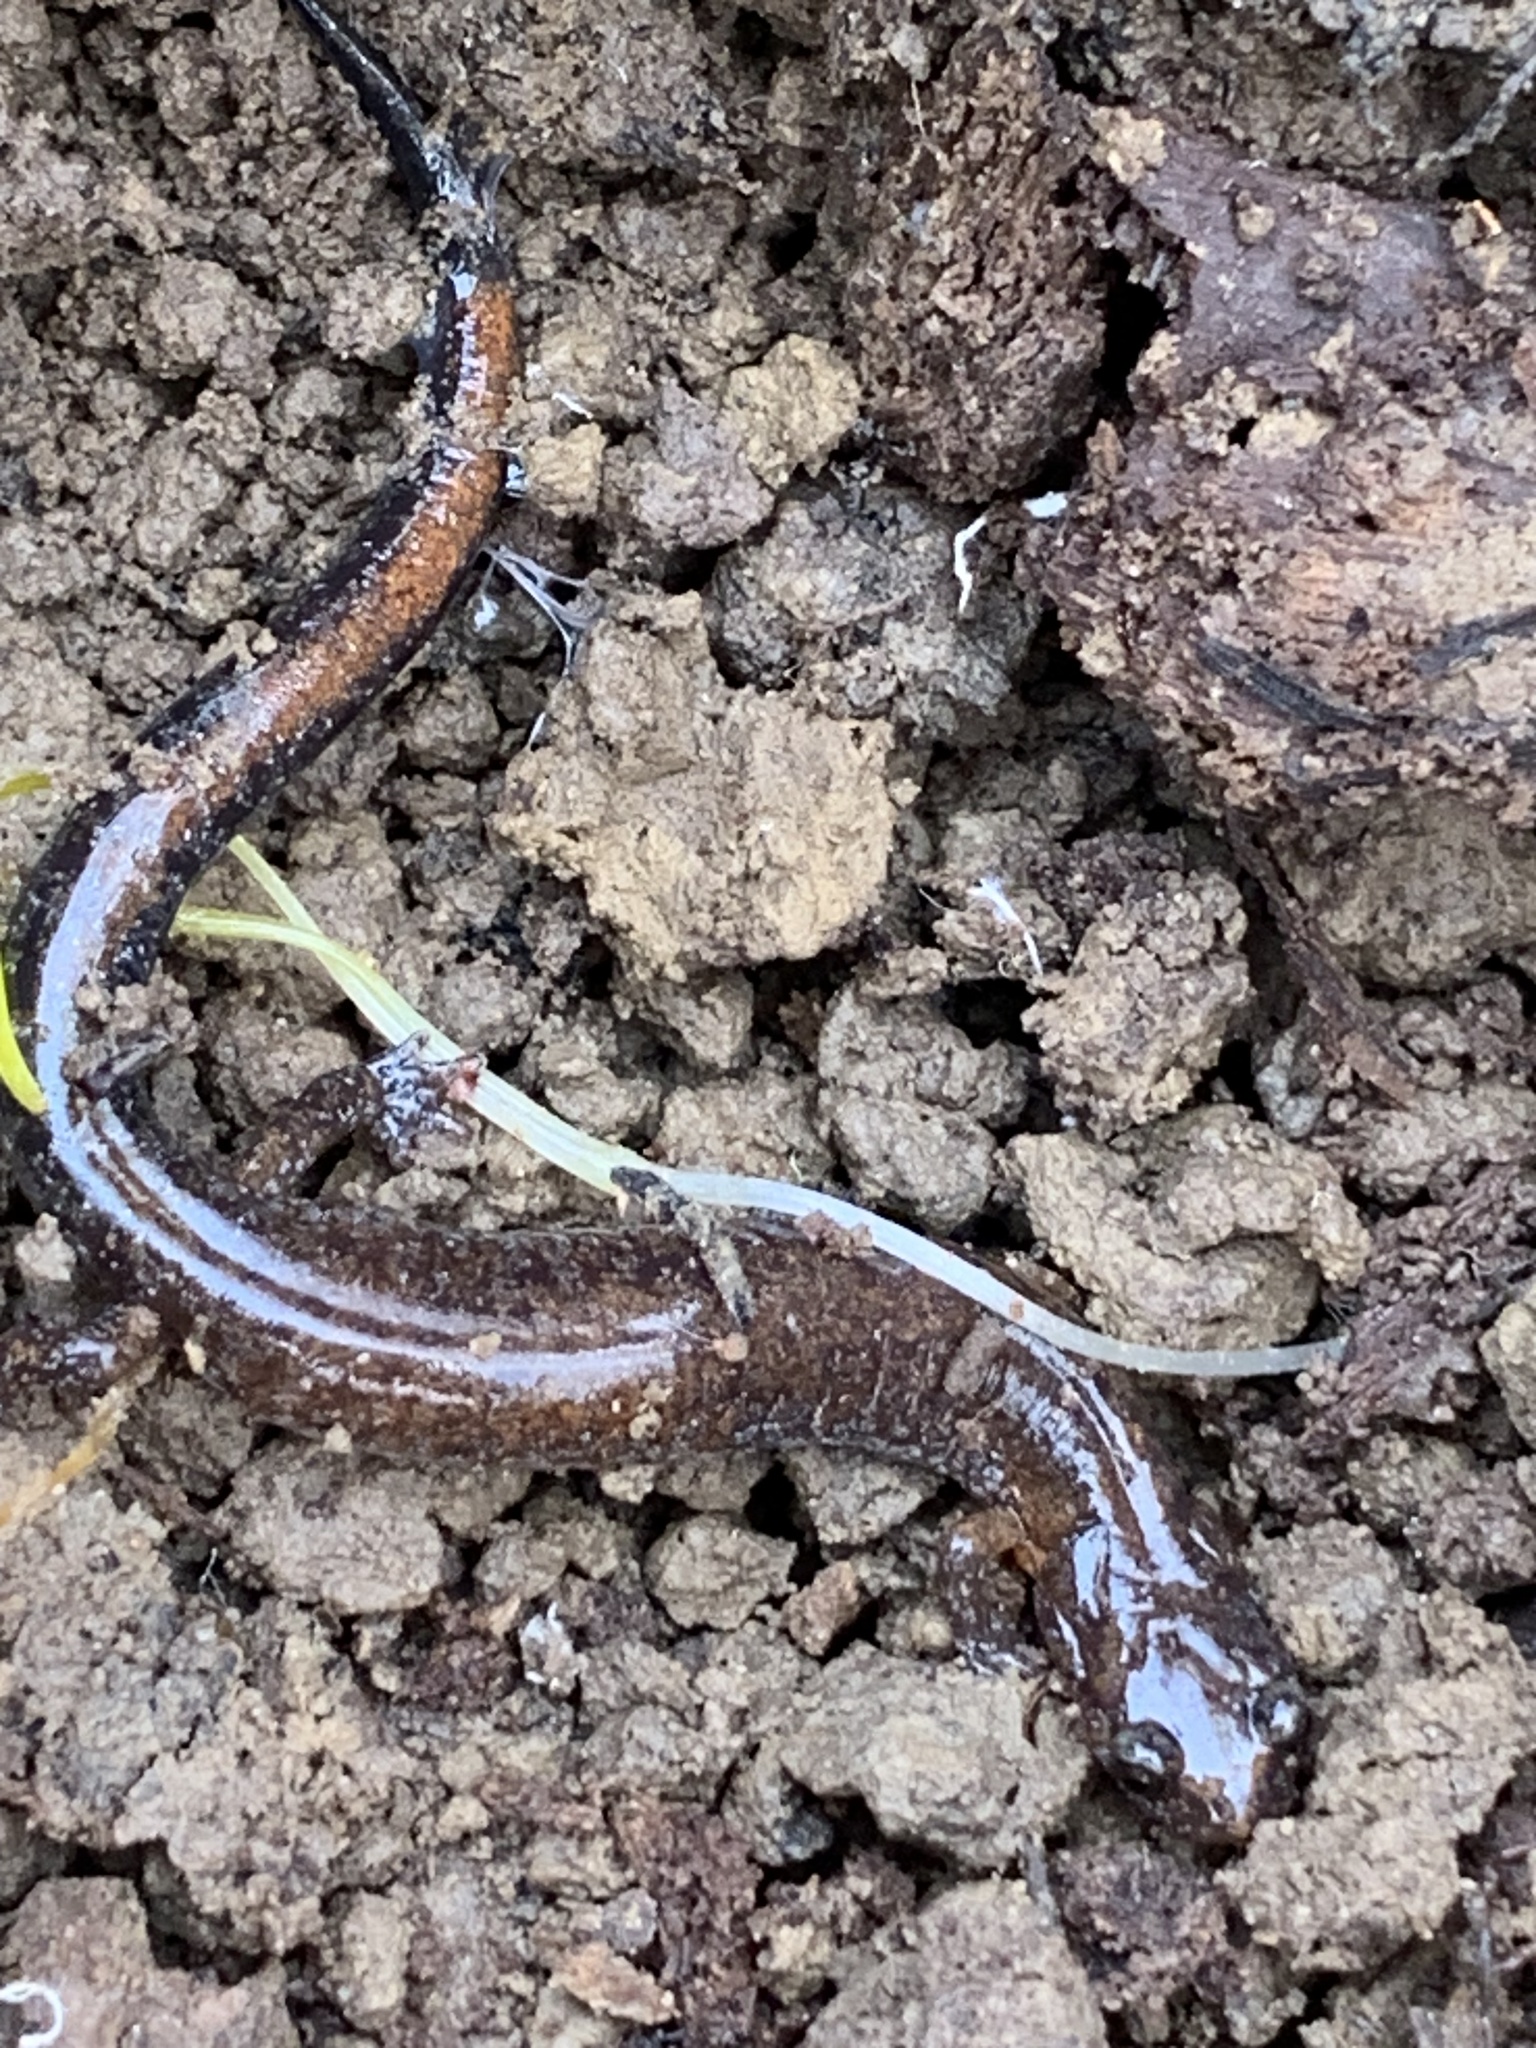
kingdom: Animalia
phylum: Chordata
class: Amphibia
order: Caudata
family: Plethodontidae
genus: Plethodon
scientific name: Plethodon cinereus
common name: Redback salamander
